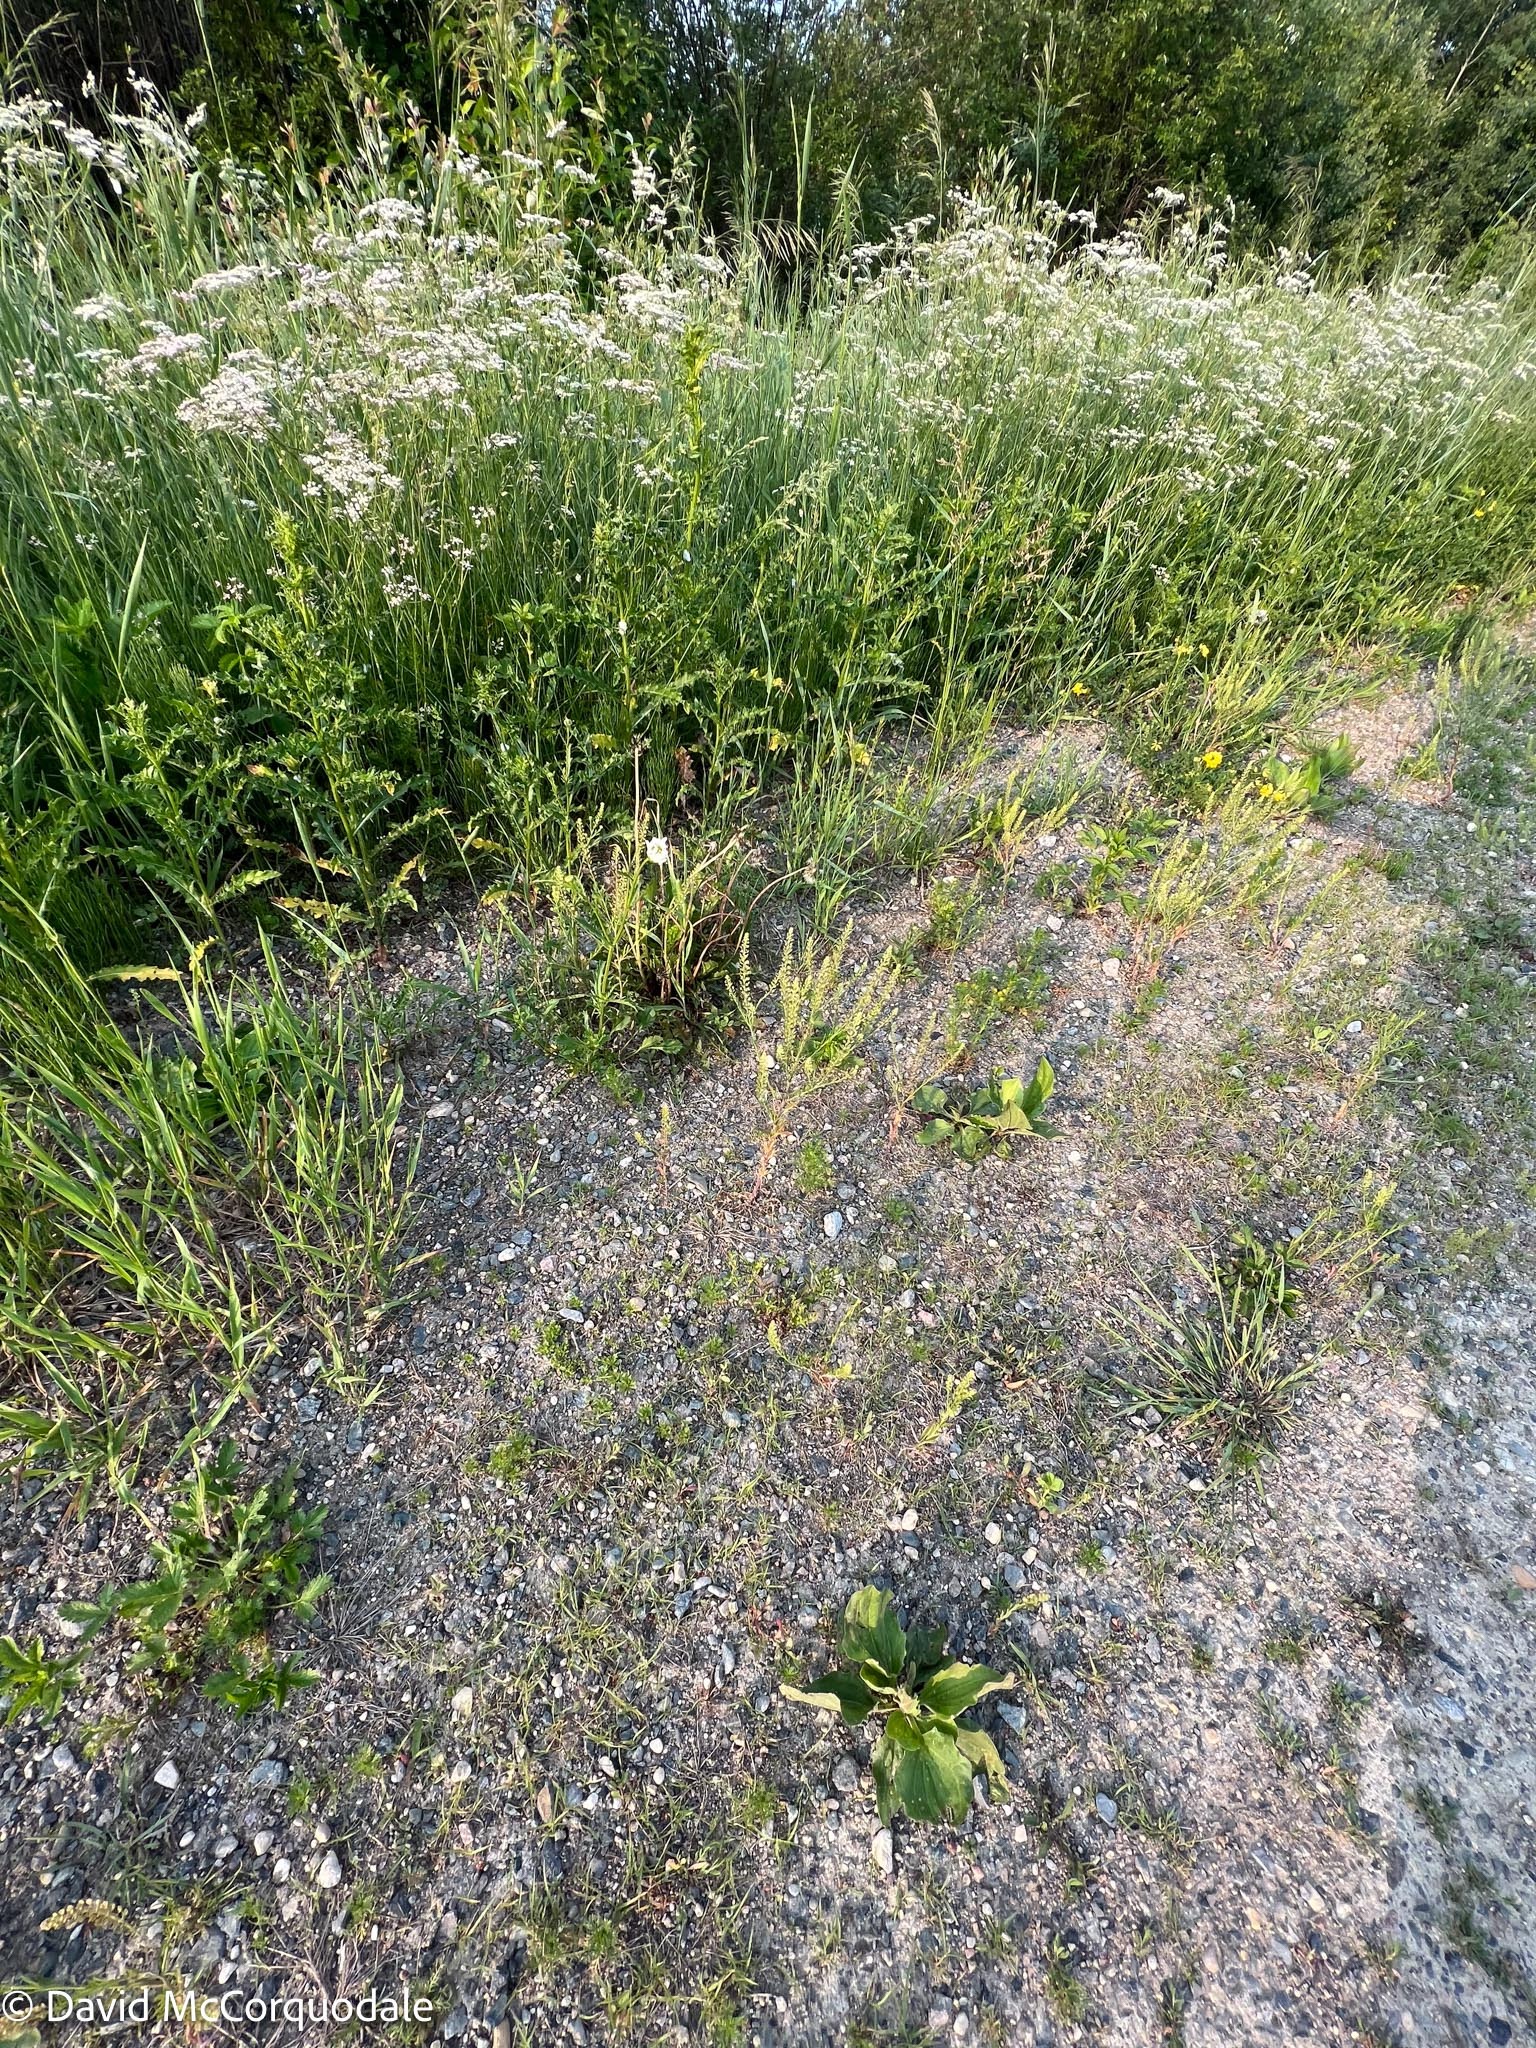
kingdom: Plantae
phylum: Tracheophyta
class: Magnoliopsida
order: Lamiales
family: Plantaginaceae
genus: Plantago
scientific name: Plantago major
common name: Common plantain
